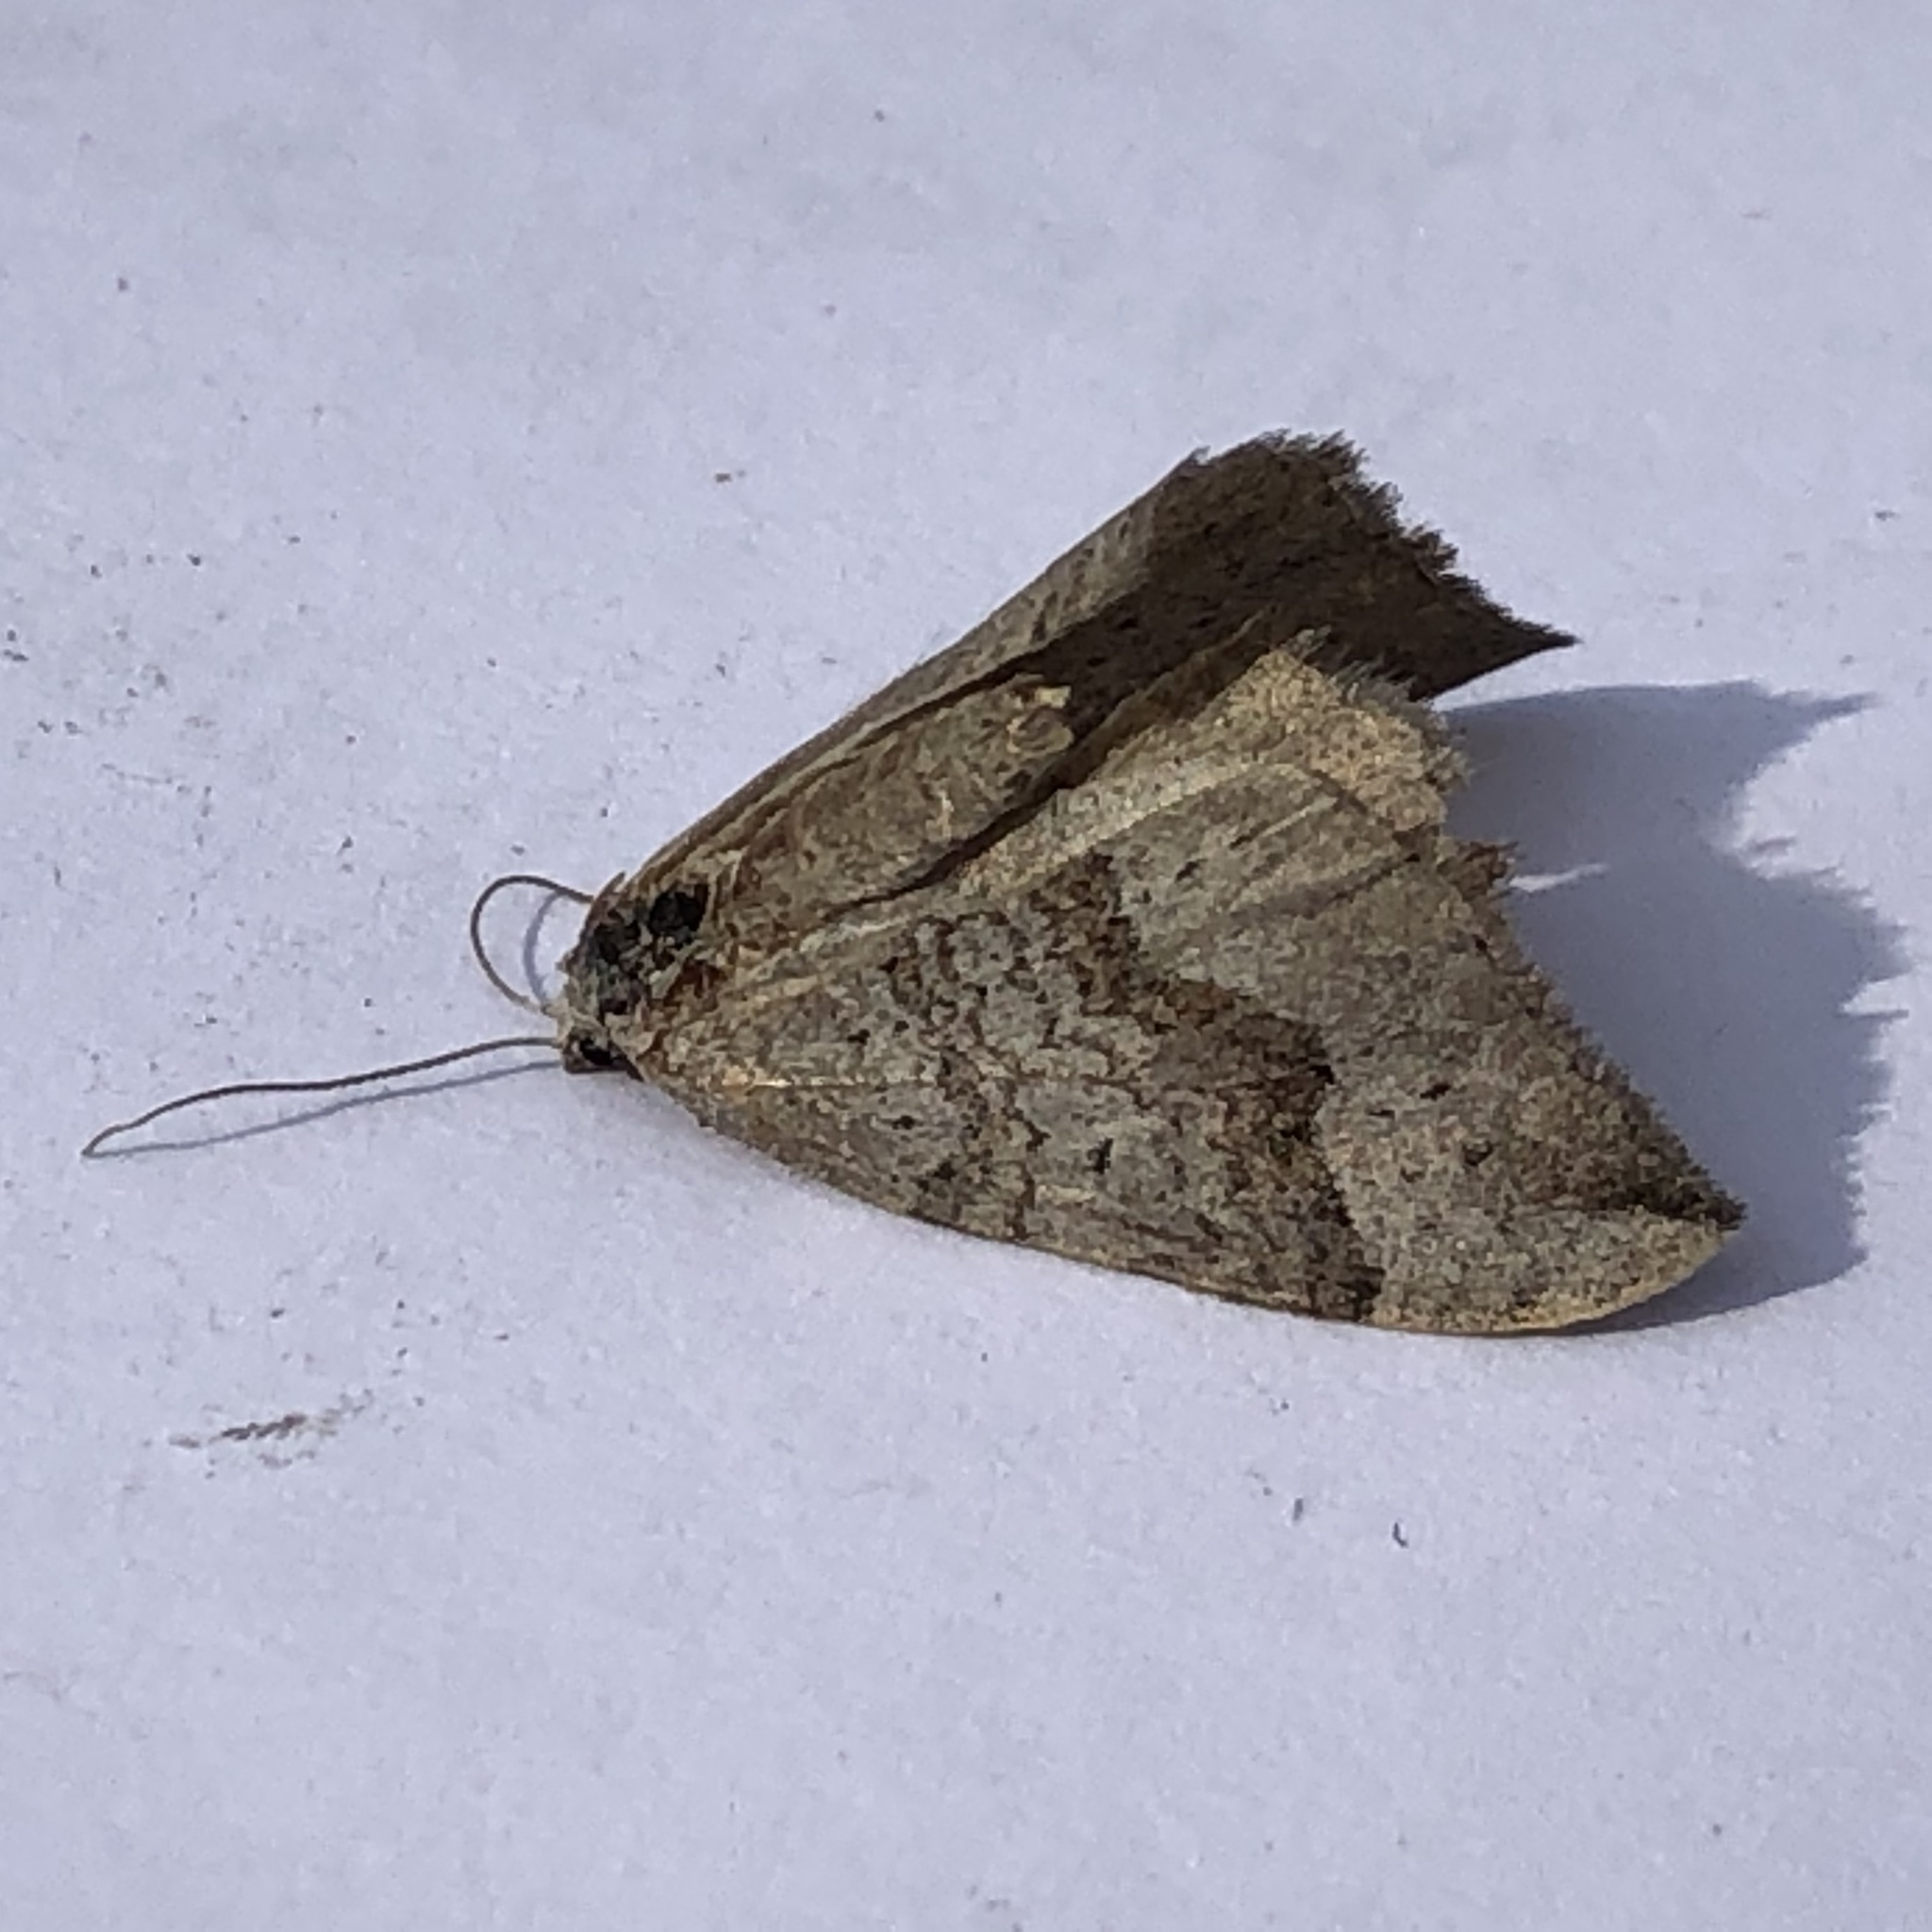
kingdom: Animalia
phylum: Arthropoda
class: Insecta
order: Lepidoptera
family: Geometridae
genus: Zenophleps
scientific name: Zenophleps alpinata
